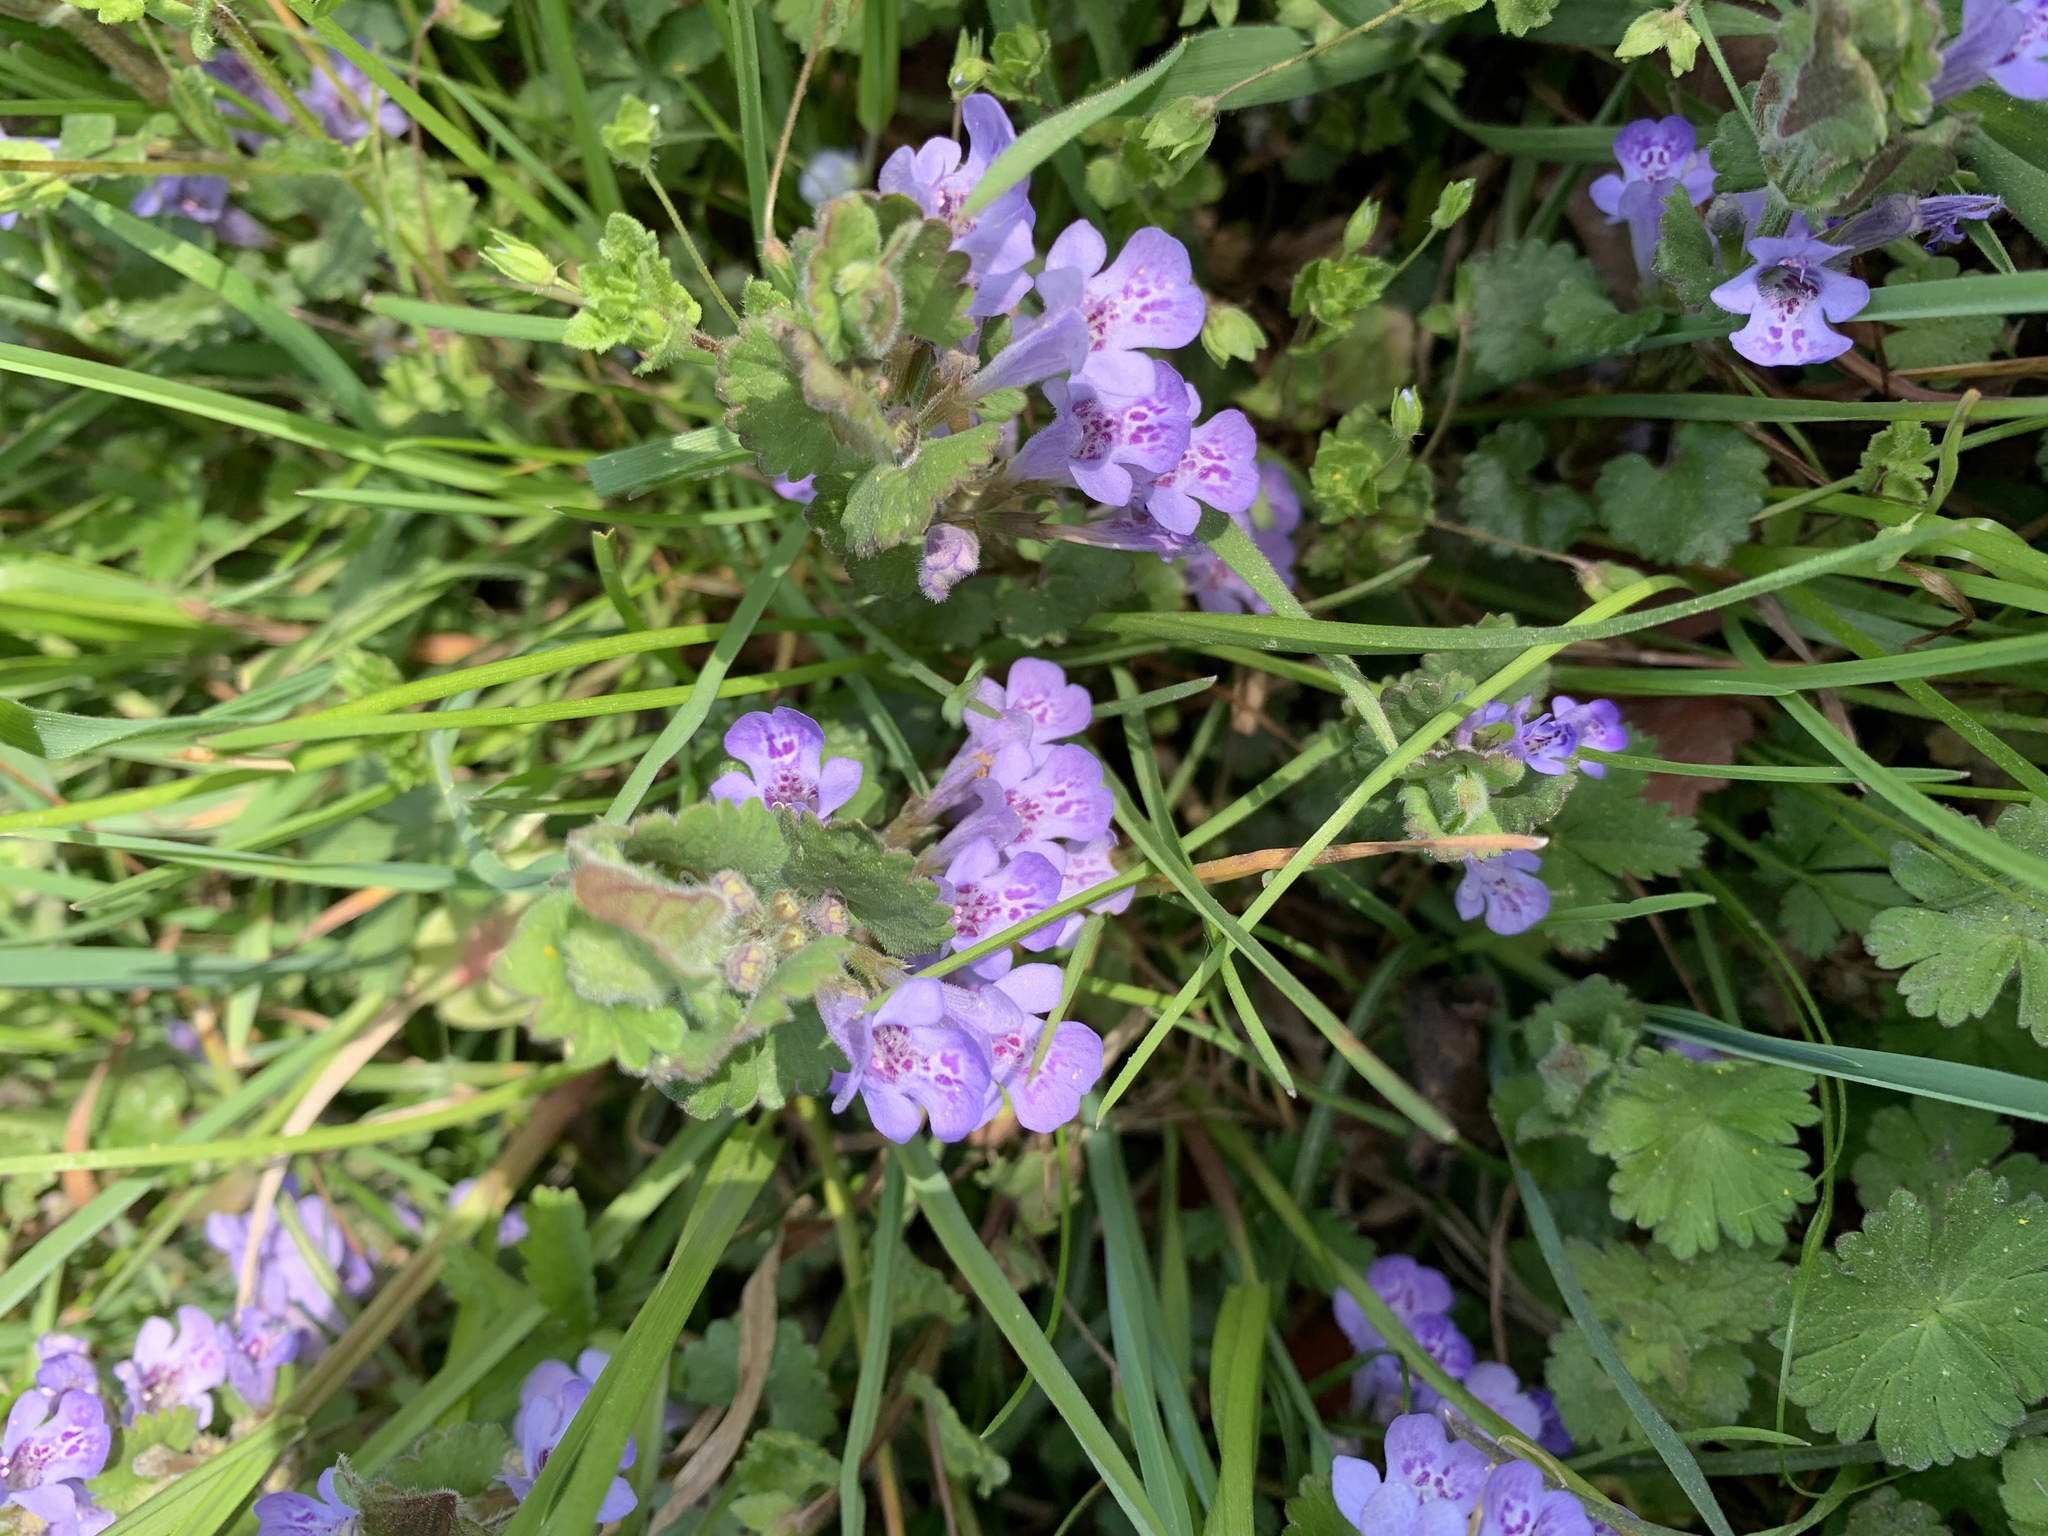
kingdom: Plantae
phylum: Tracheophyta
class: Magnoliopsida
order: Lamiales
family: Lamiaceae
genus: Glechoma
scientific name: Glechoma hederacea
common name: Ground ivy
